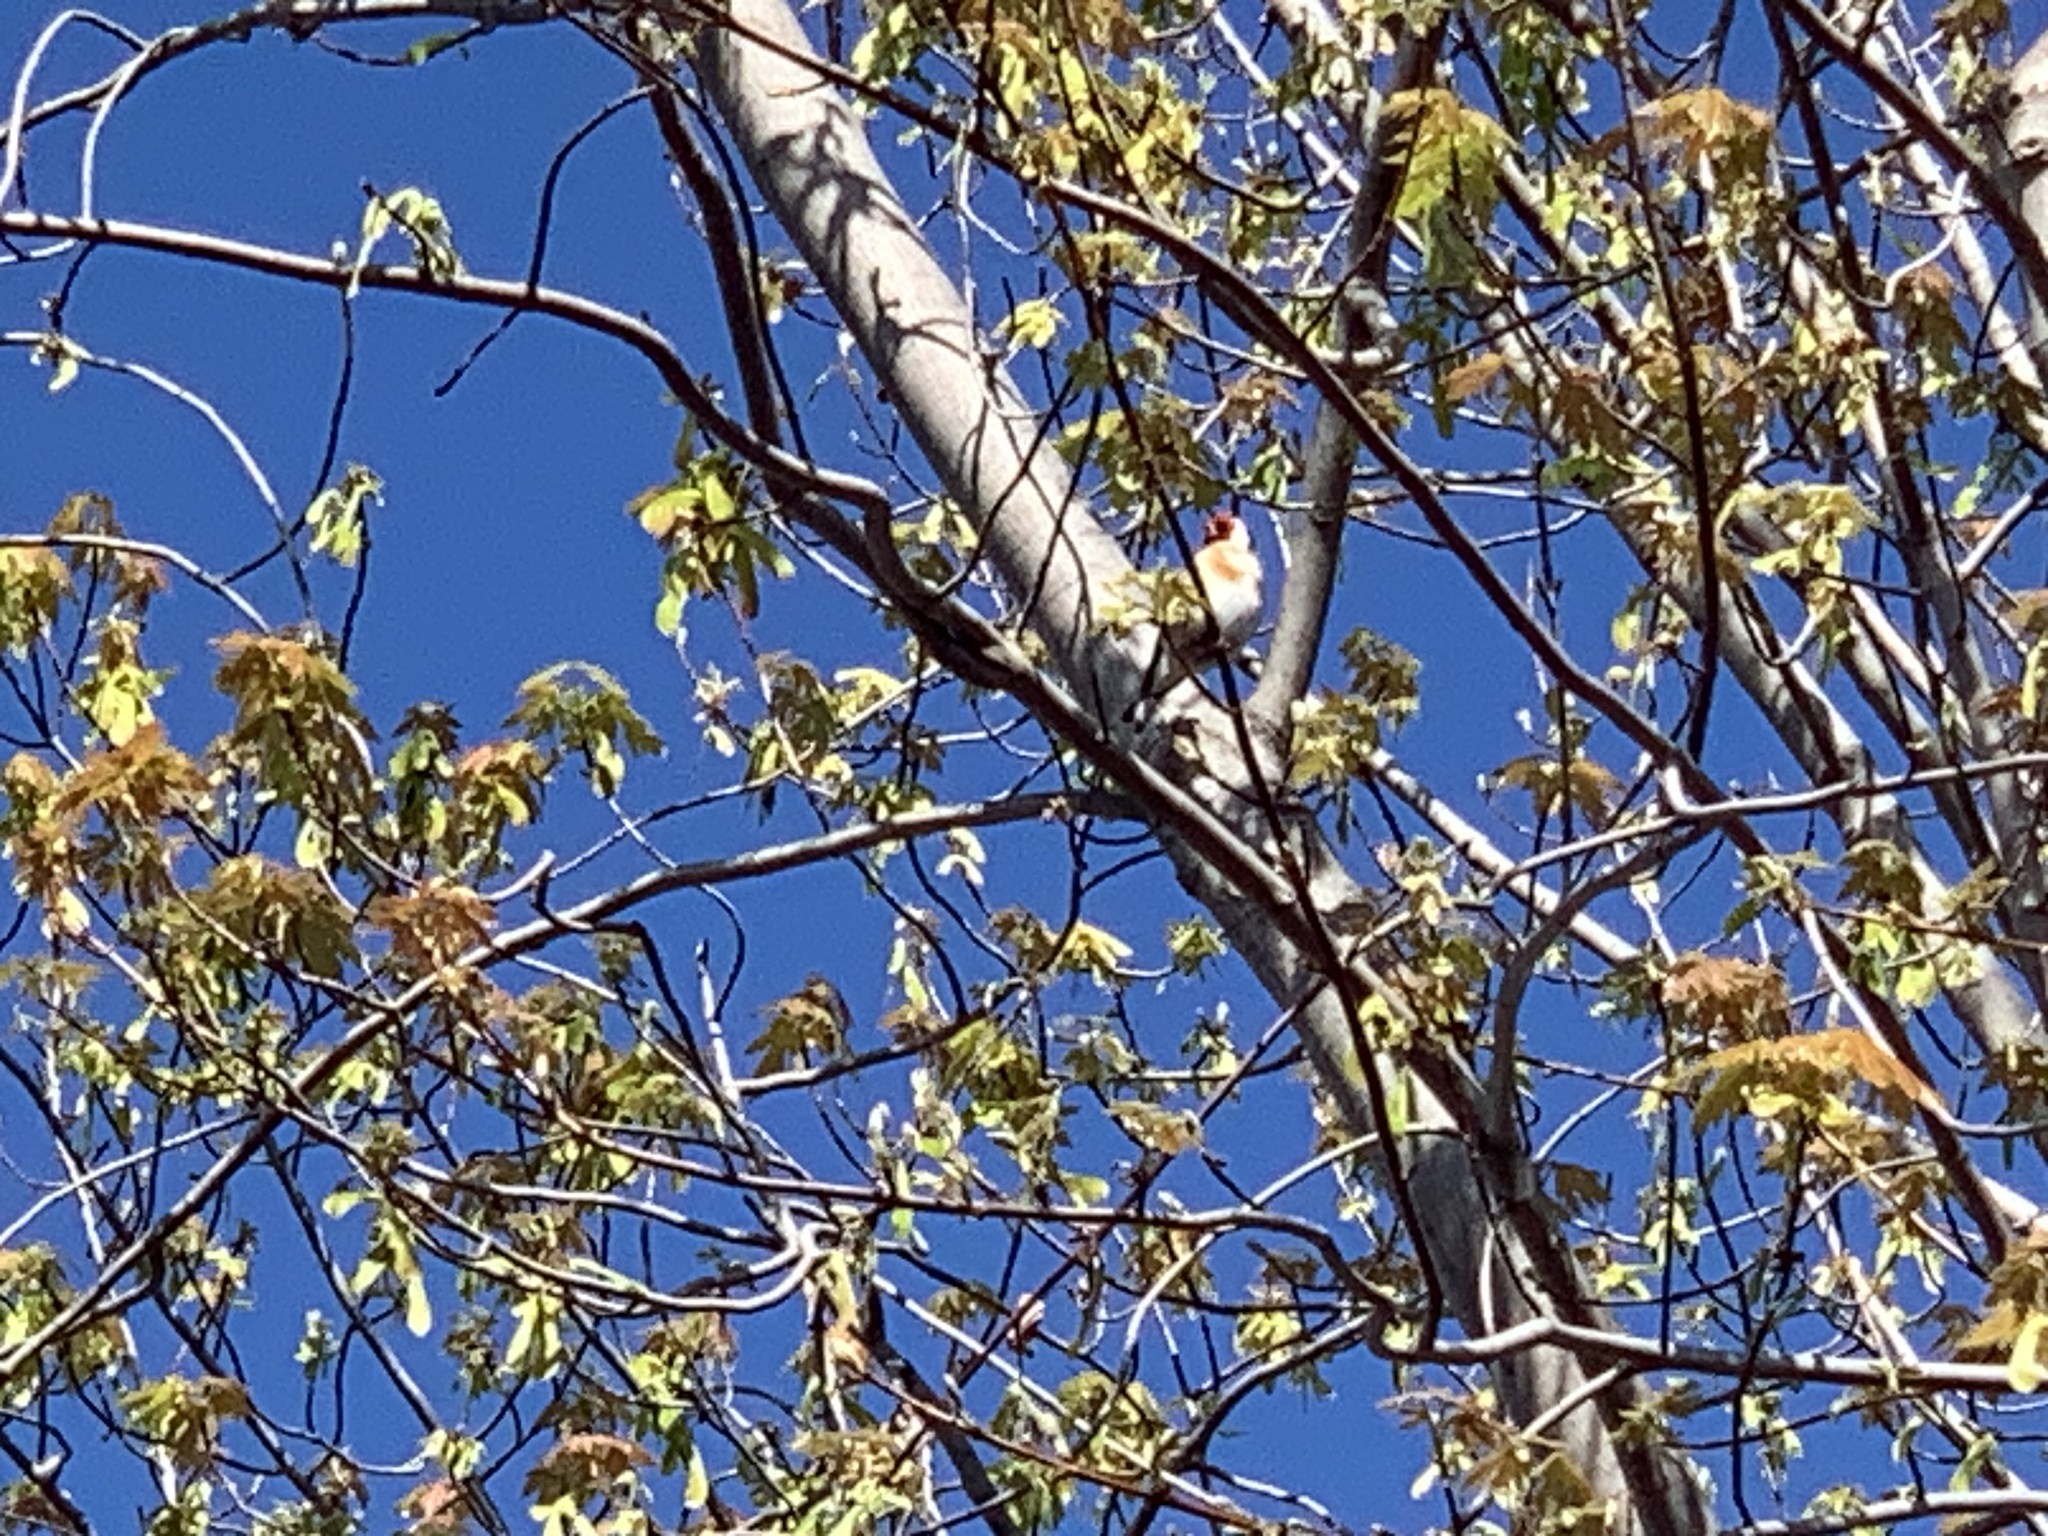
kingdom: Animalia
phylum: Chordata
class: Aves
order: Passeriformes
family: Fringillidae
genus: Carduelis
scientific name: Carduelis carduelis
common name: European goldfinch
